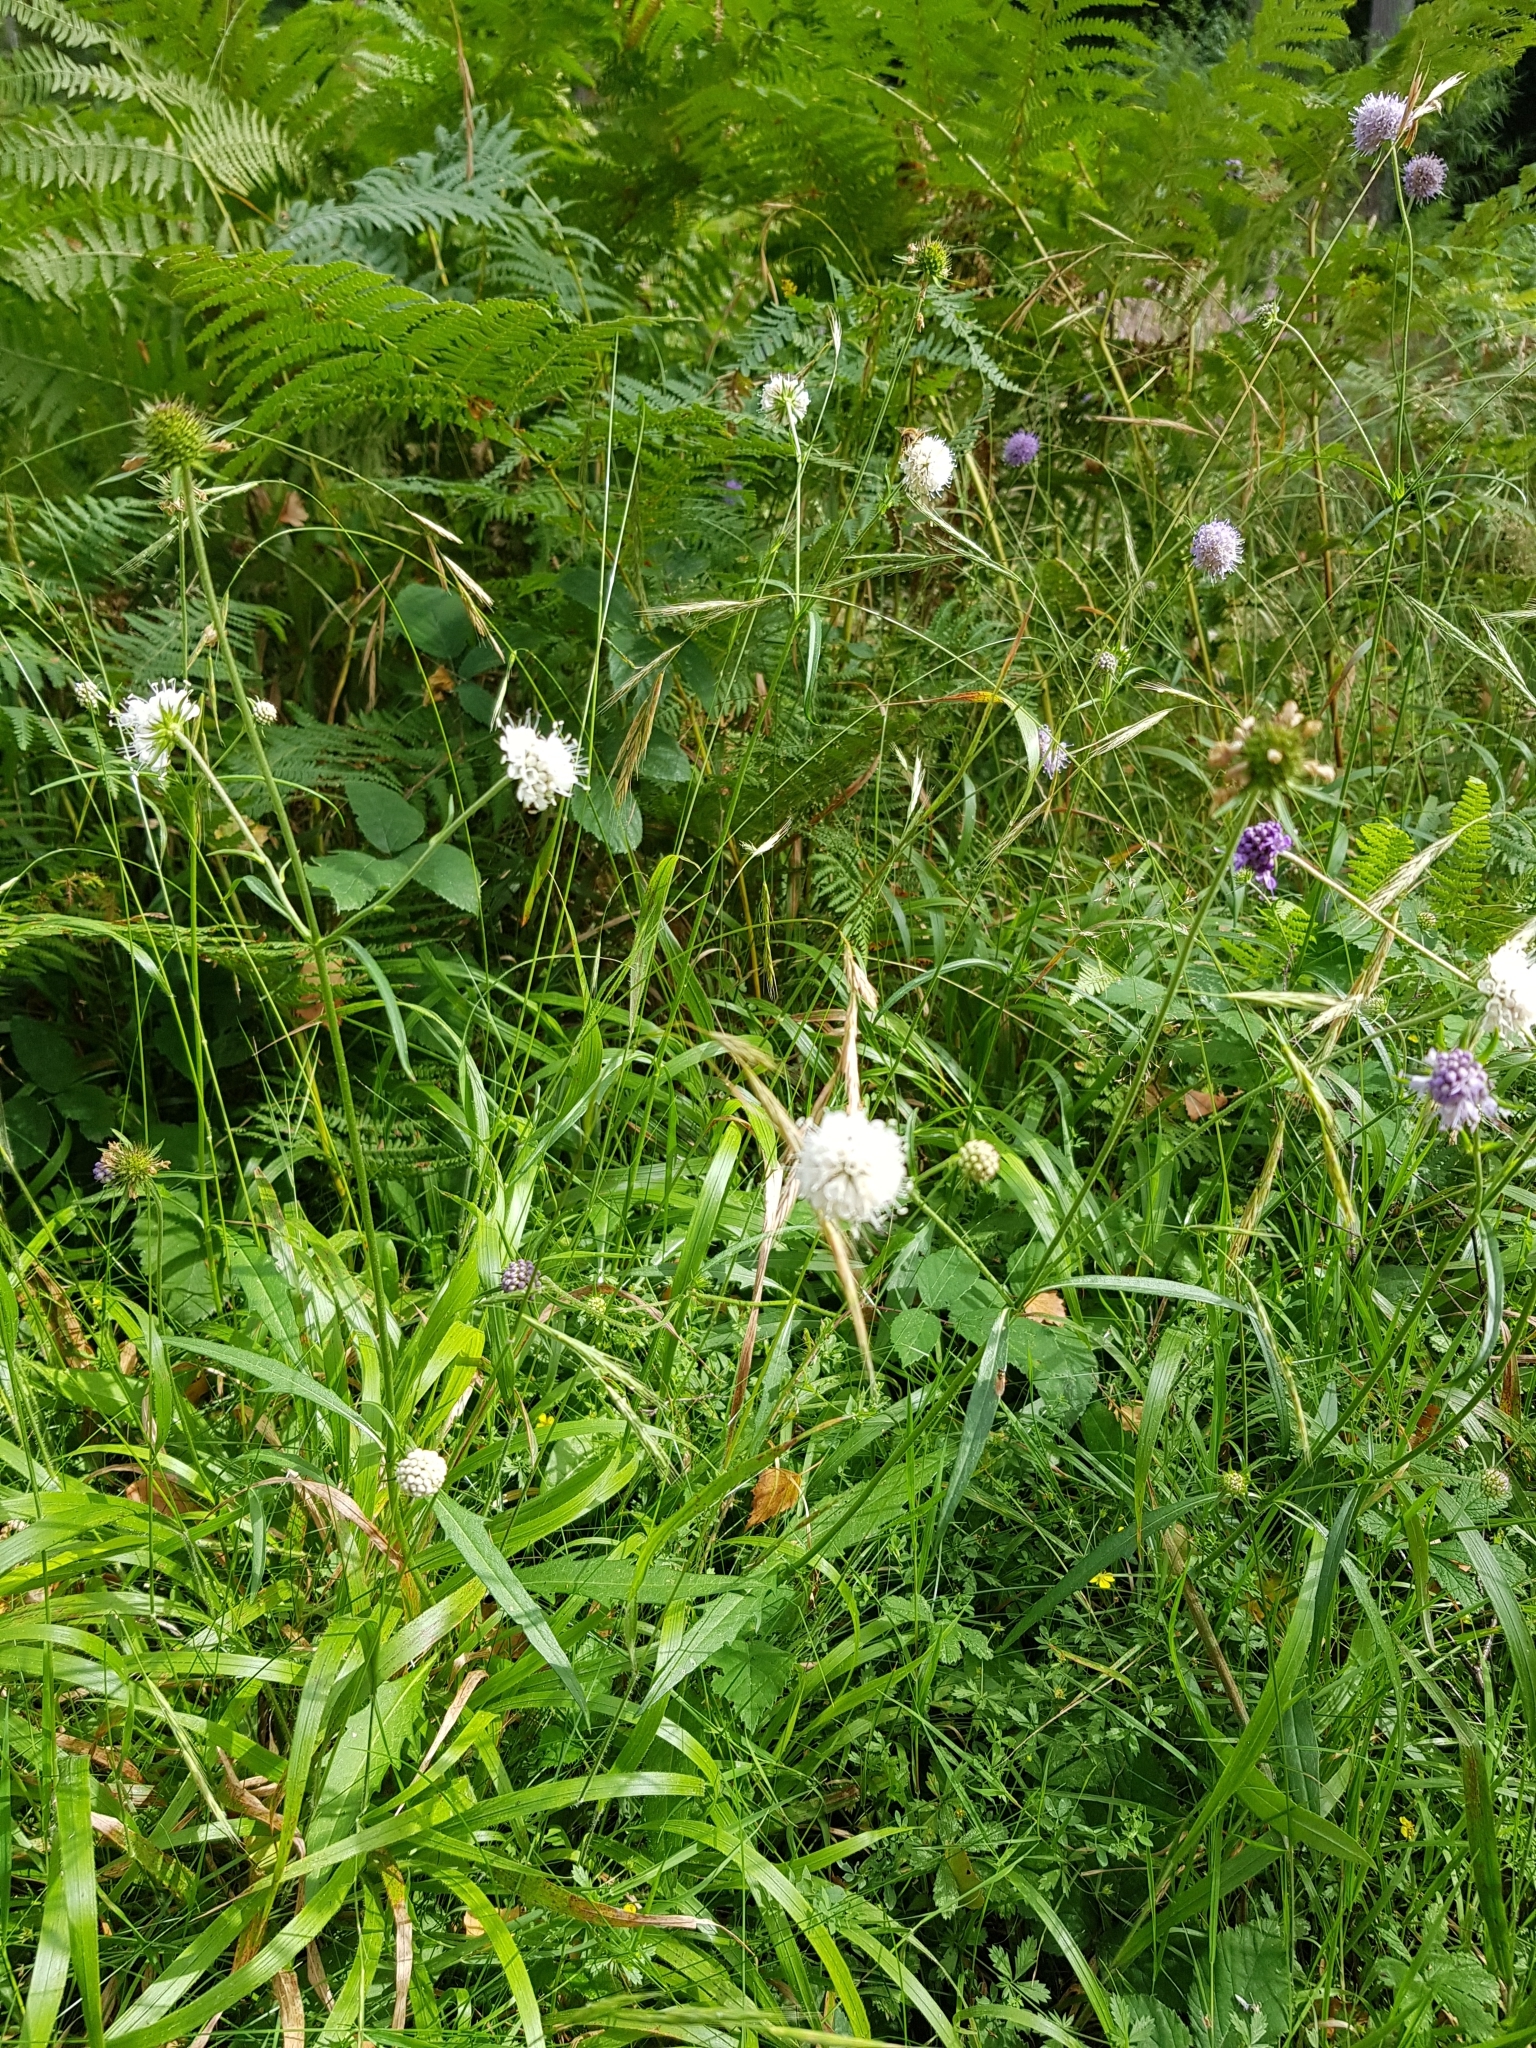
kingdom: Plantae
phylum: Tracheophyta
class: Magnoliopsida
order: Dipsacales
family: Caprifoliaceae
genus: Succisa
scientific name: Succisa pratensis
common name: Devil's-bit
